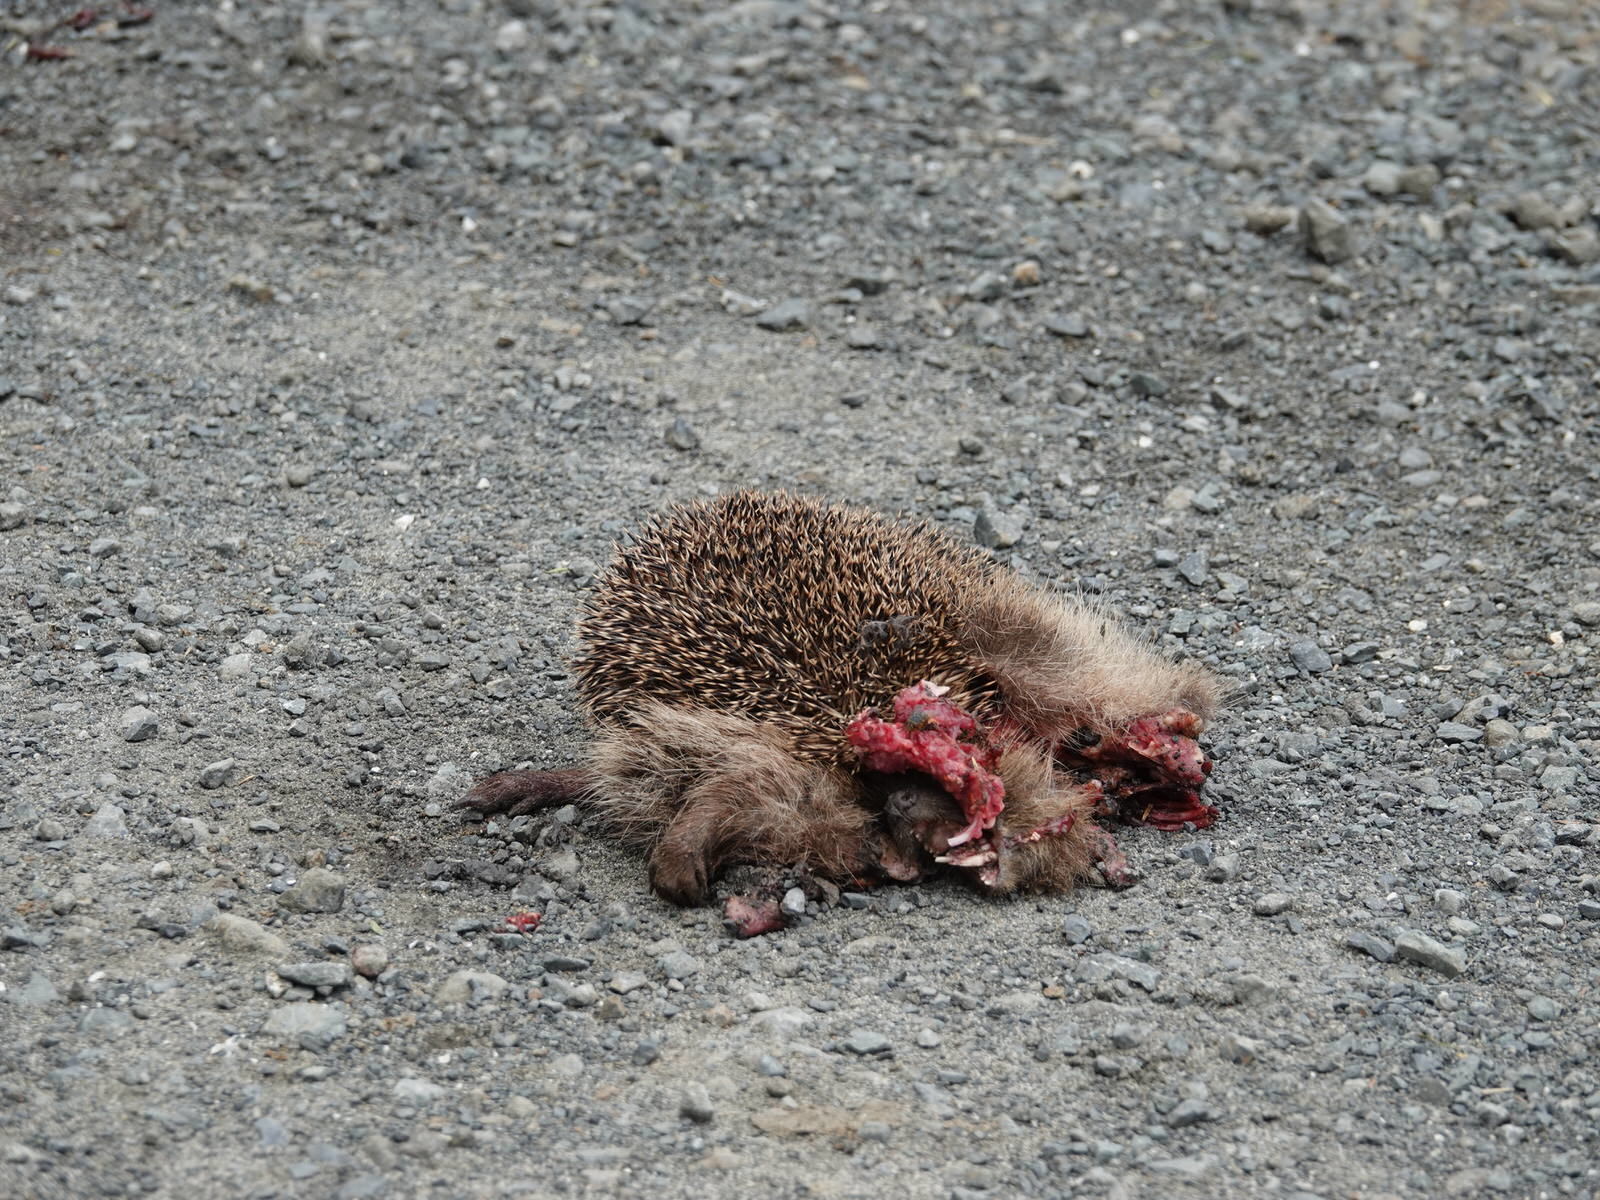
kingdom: Animalia
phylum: Chordata
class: Mammalia
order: Erinaceomorpha
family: Erinaceidae
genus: Erinaceus
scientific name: Erinaceus europaeus
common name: West european hedgehog
